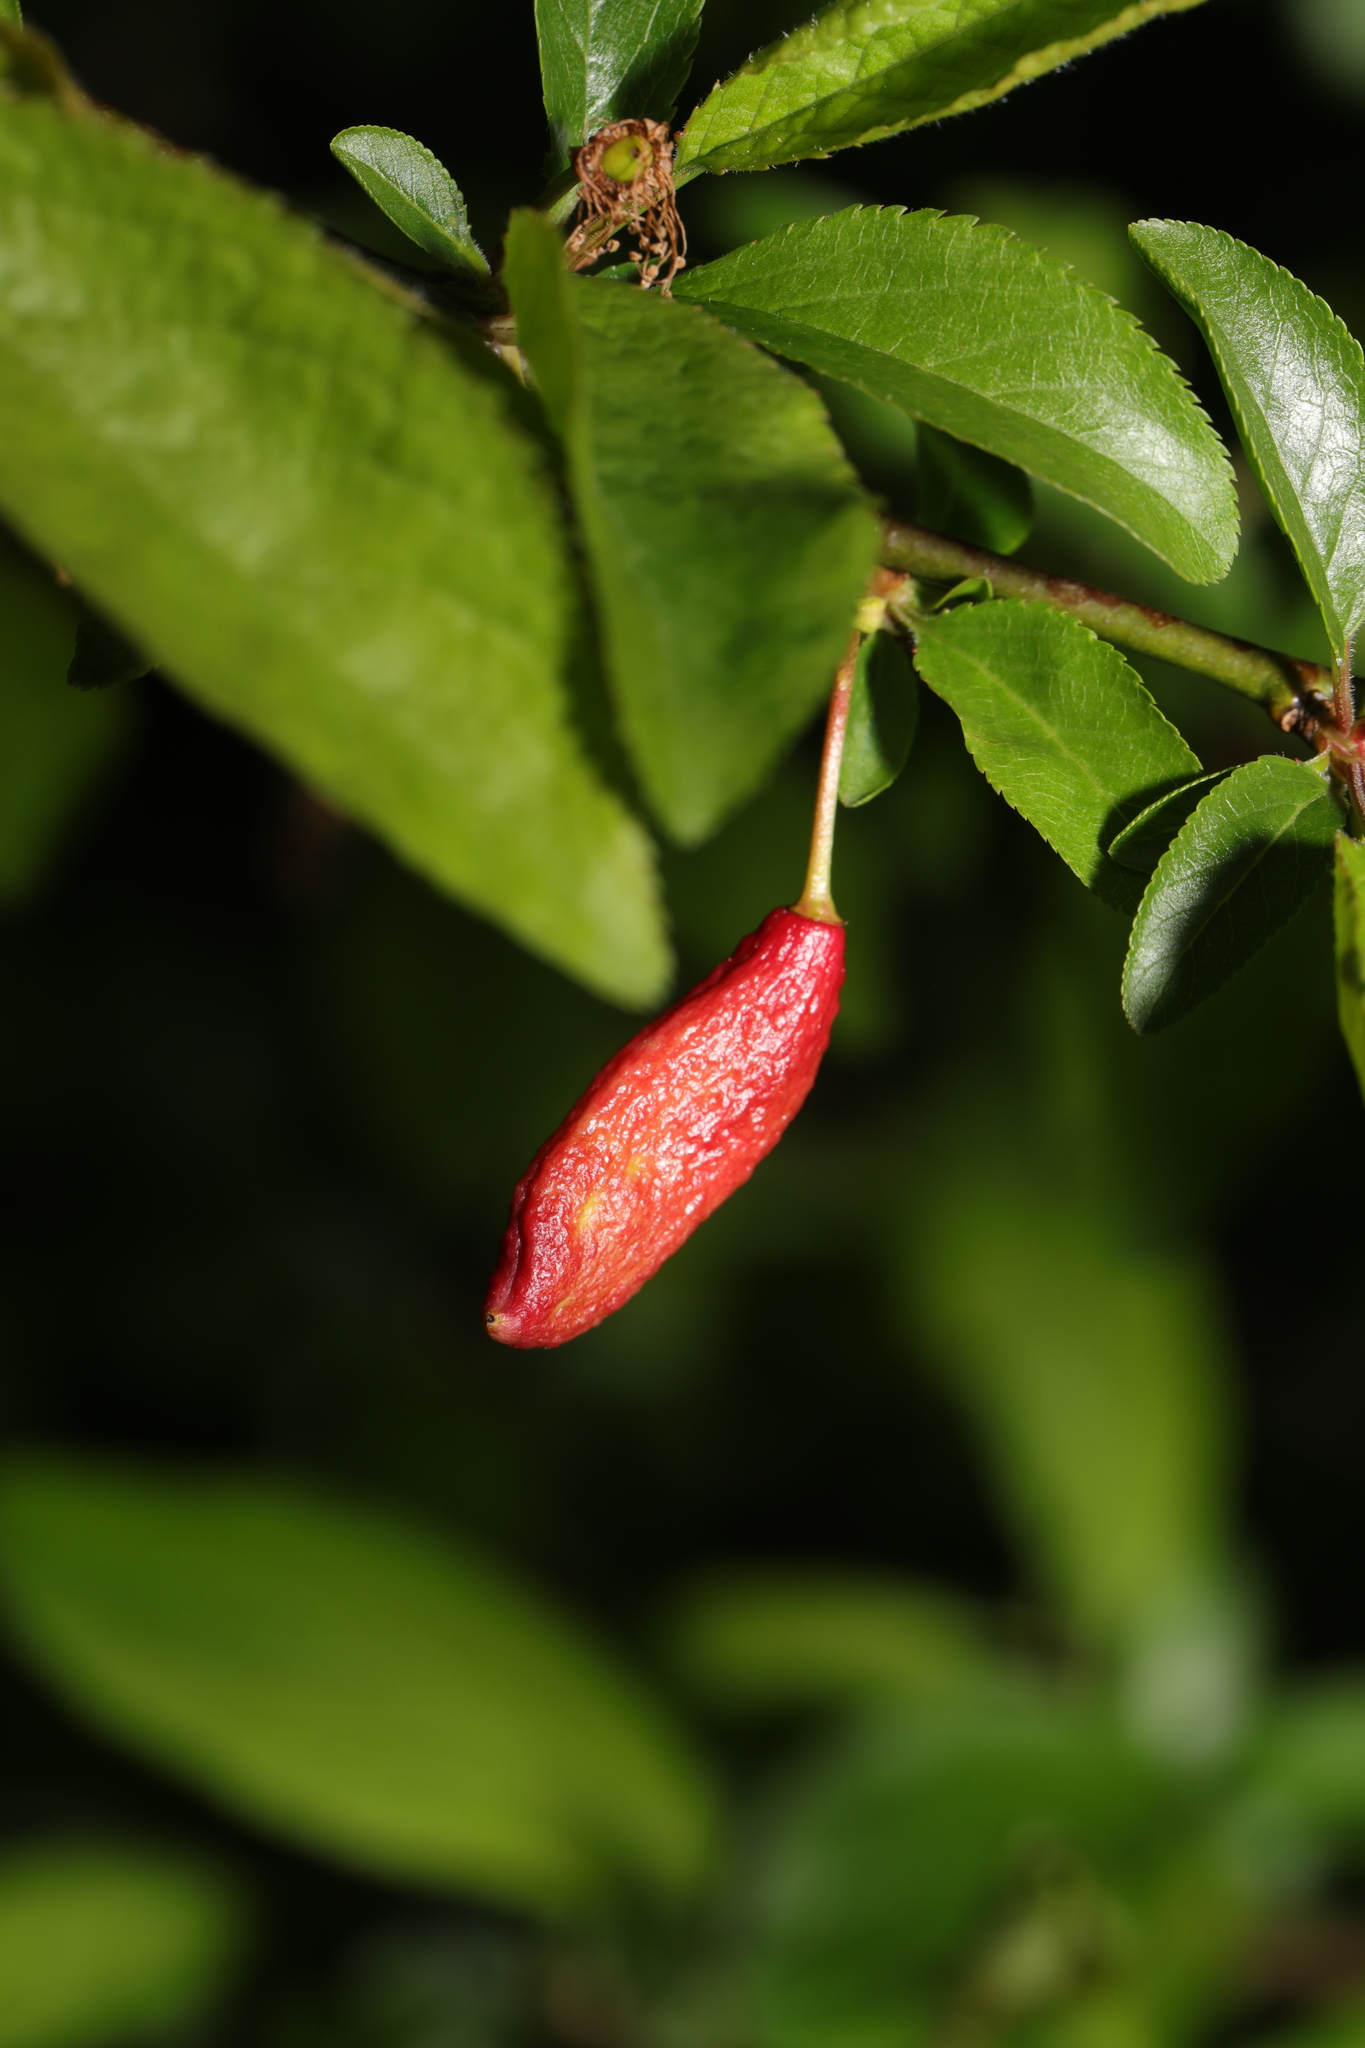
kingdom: Fungi
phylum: Ascomycota
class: Taphrinomycetes
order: Taphrinales
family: Taphrinaceae
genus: Taphrina
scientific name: Taphrina pruni
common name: Pocket plum
